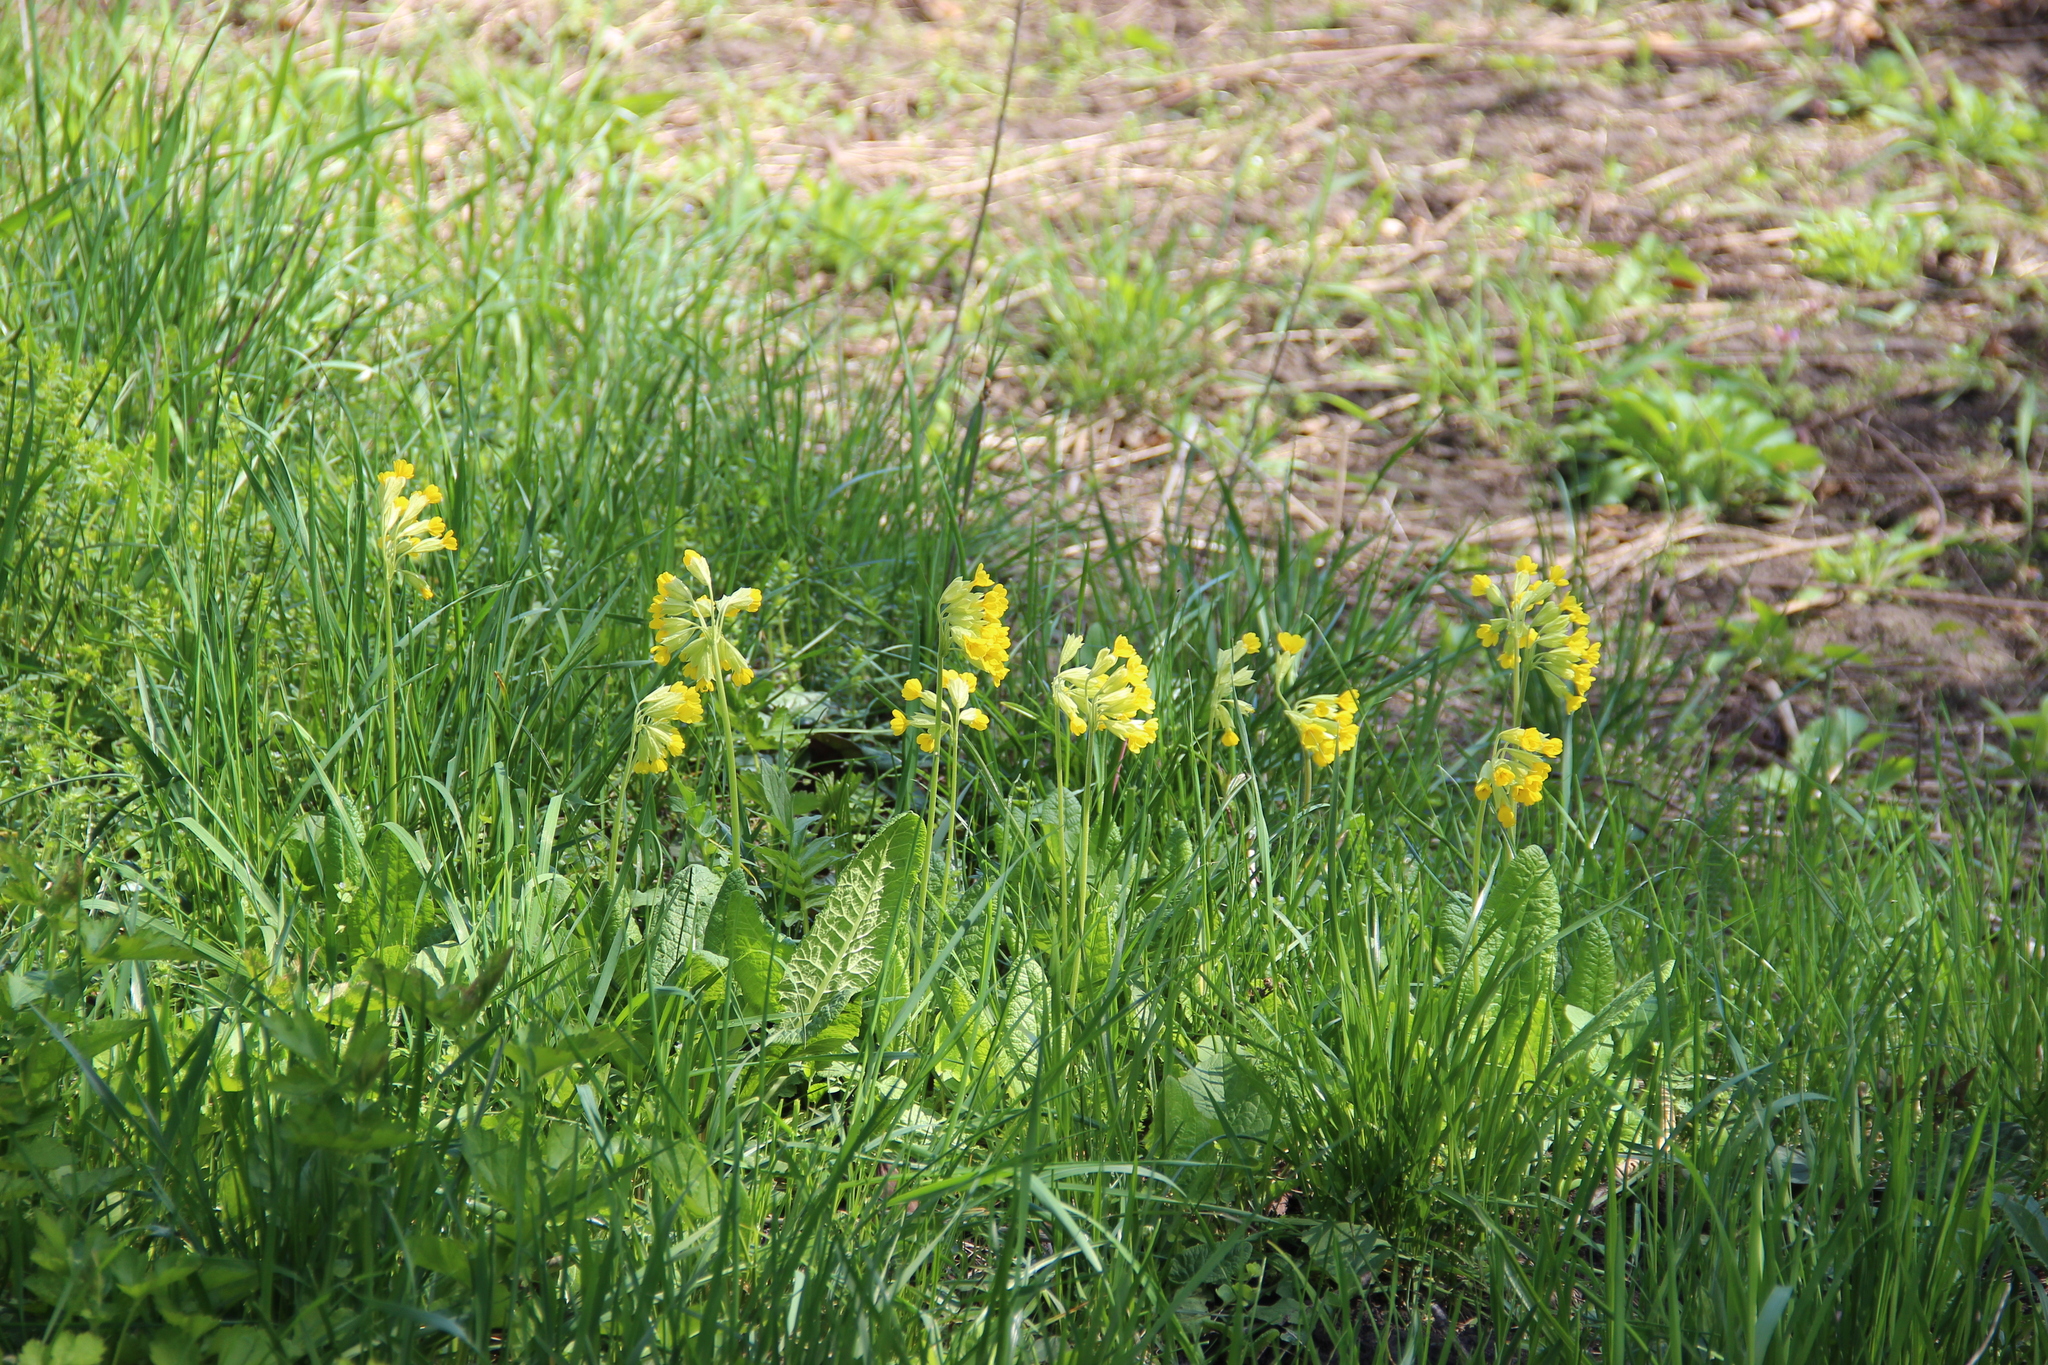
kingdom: Plantae
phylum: Tracheophyta
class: Magnoliopsida
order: Ericales
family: Primulaceae
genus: Primula
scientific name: Primula veris
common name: Cowslip
